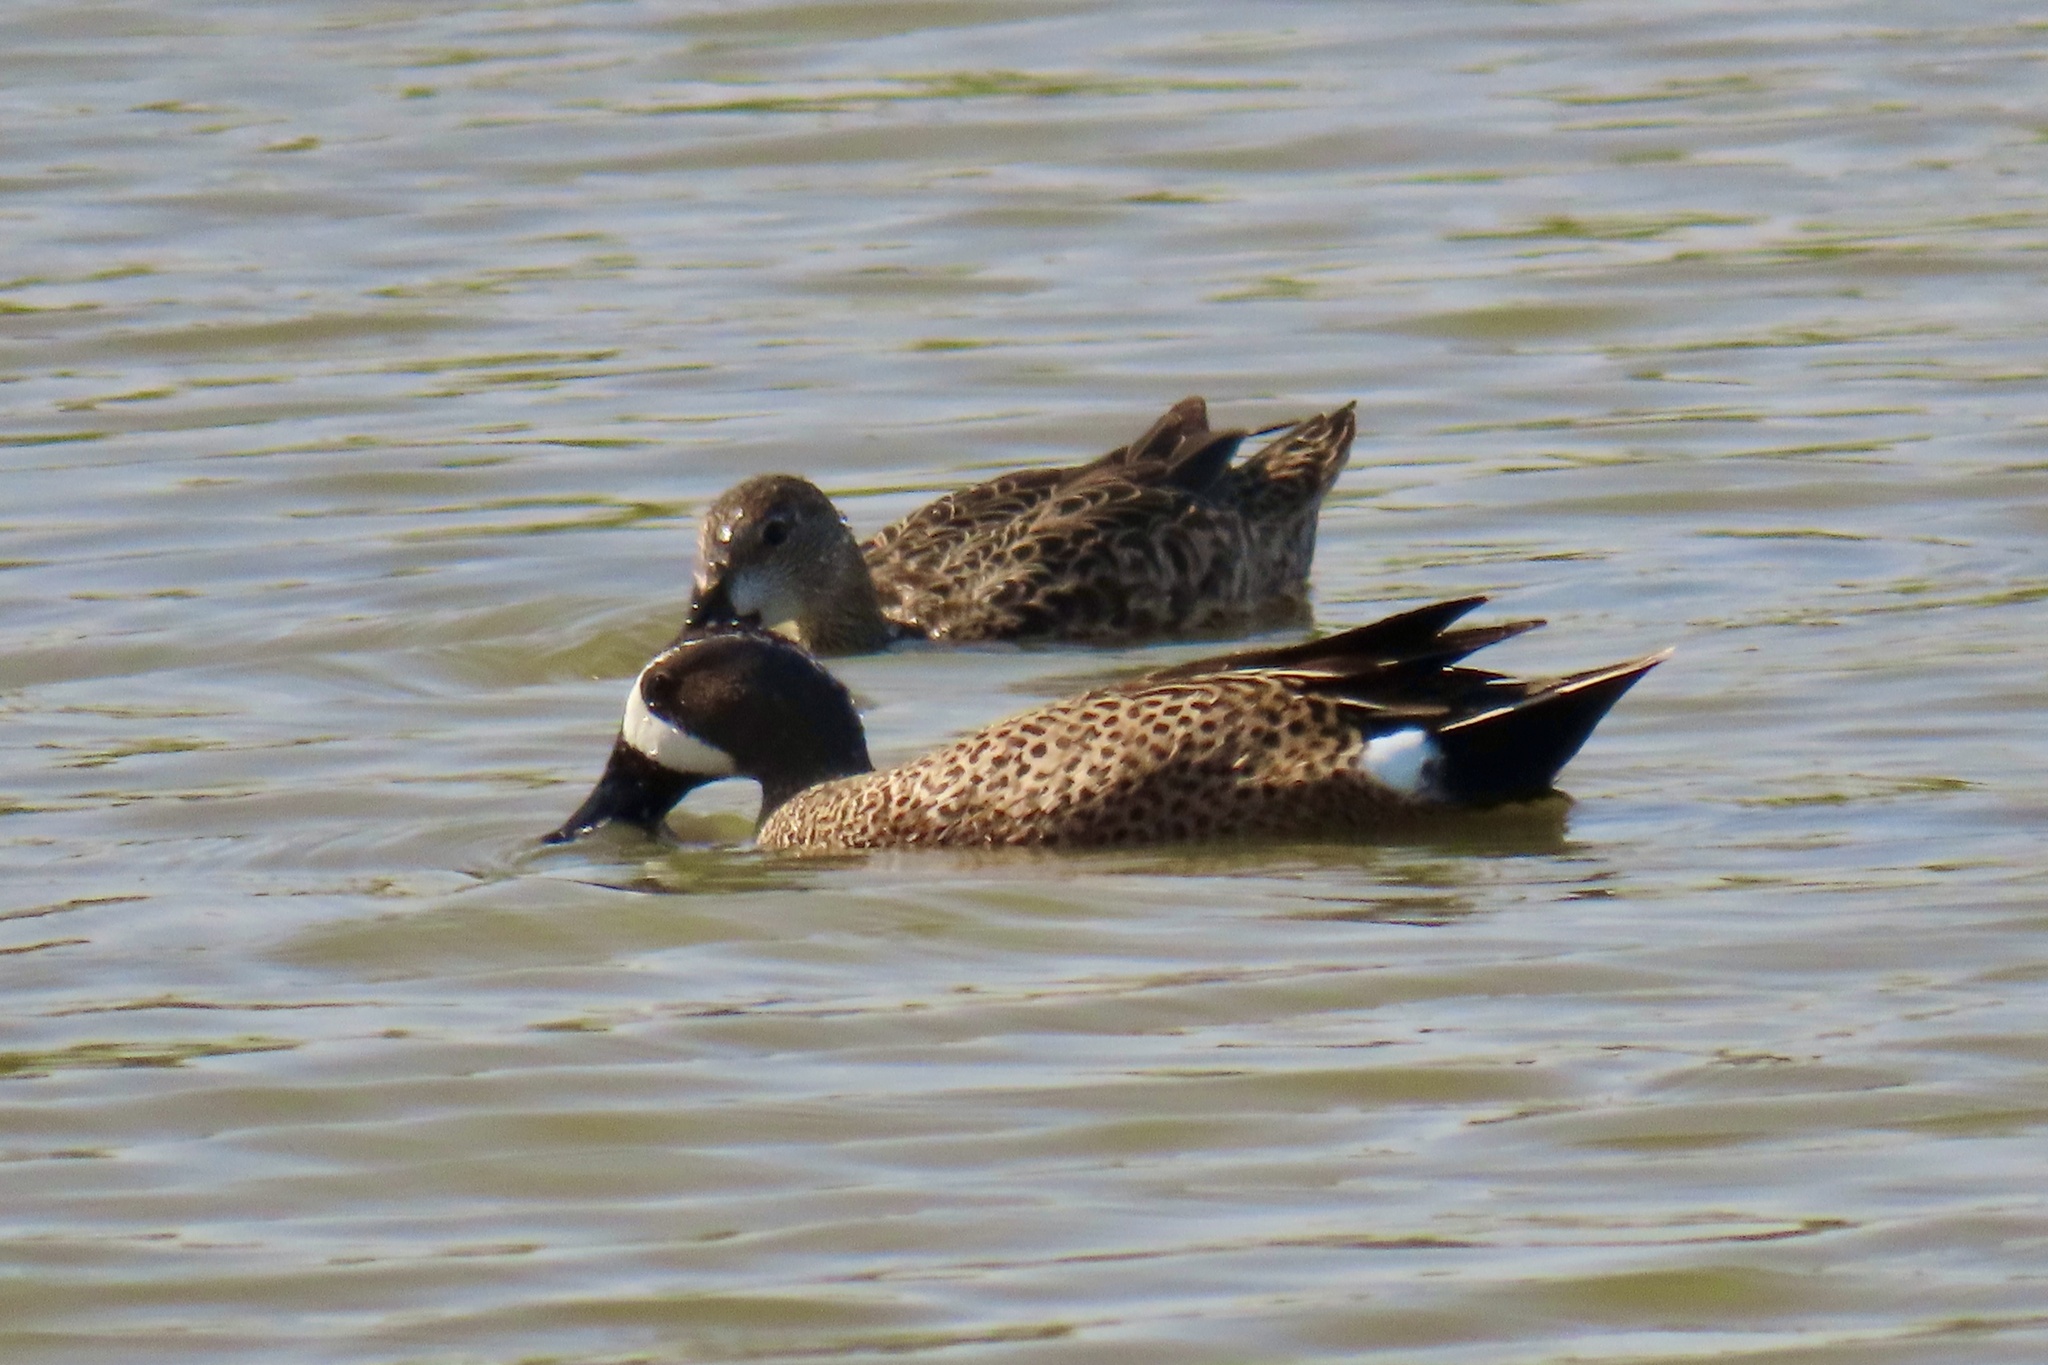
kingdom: Animalia
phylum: Chordata
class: Aves
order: Anseriformes
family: Anatidae
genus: Spatula
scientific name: Spatula discors
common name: Blue-winged teal
